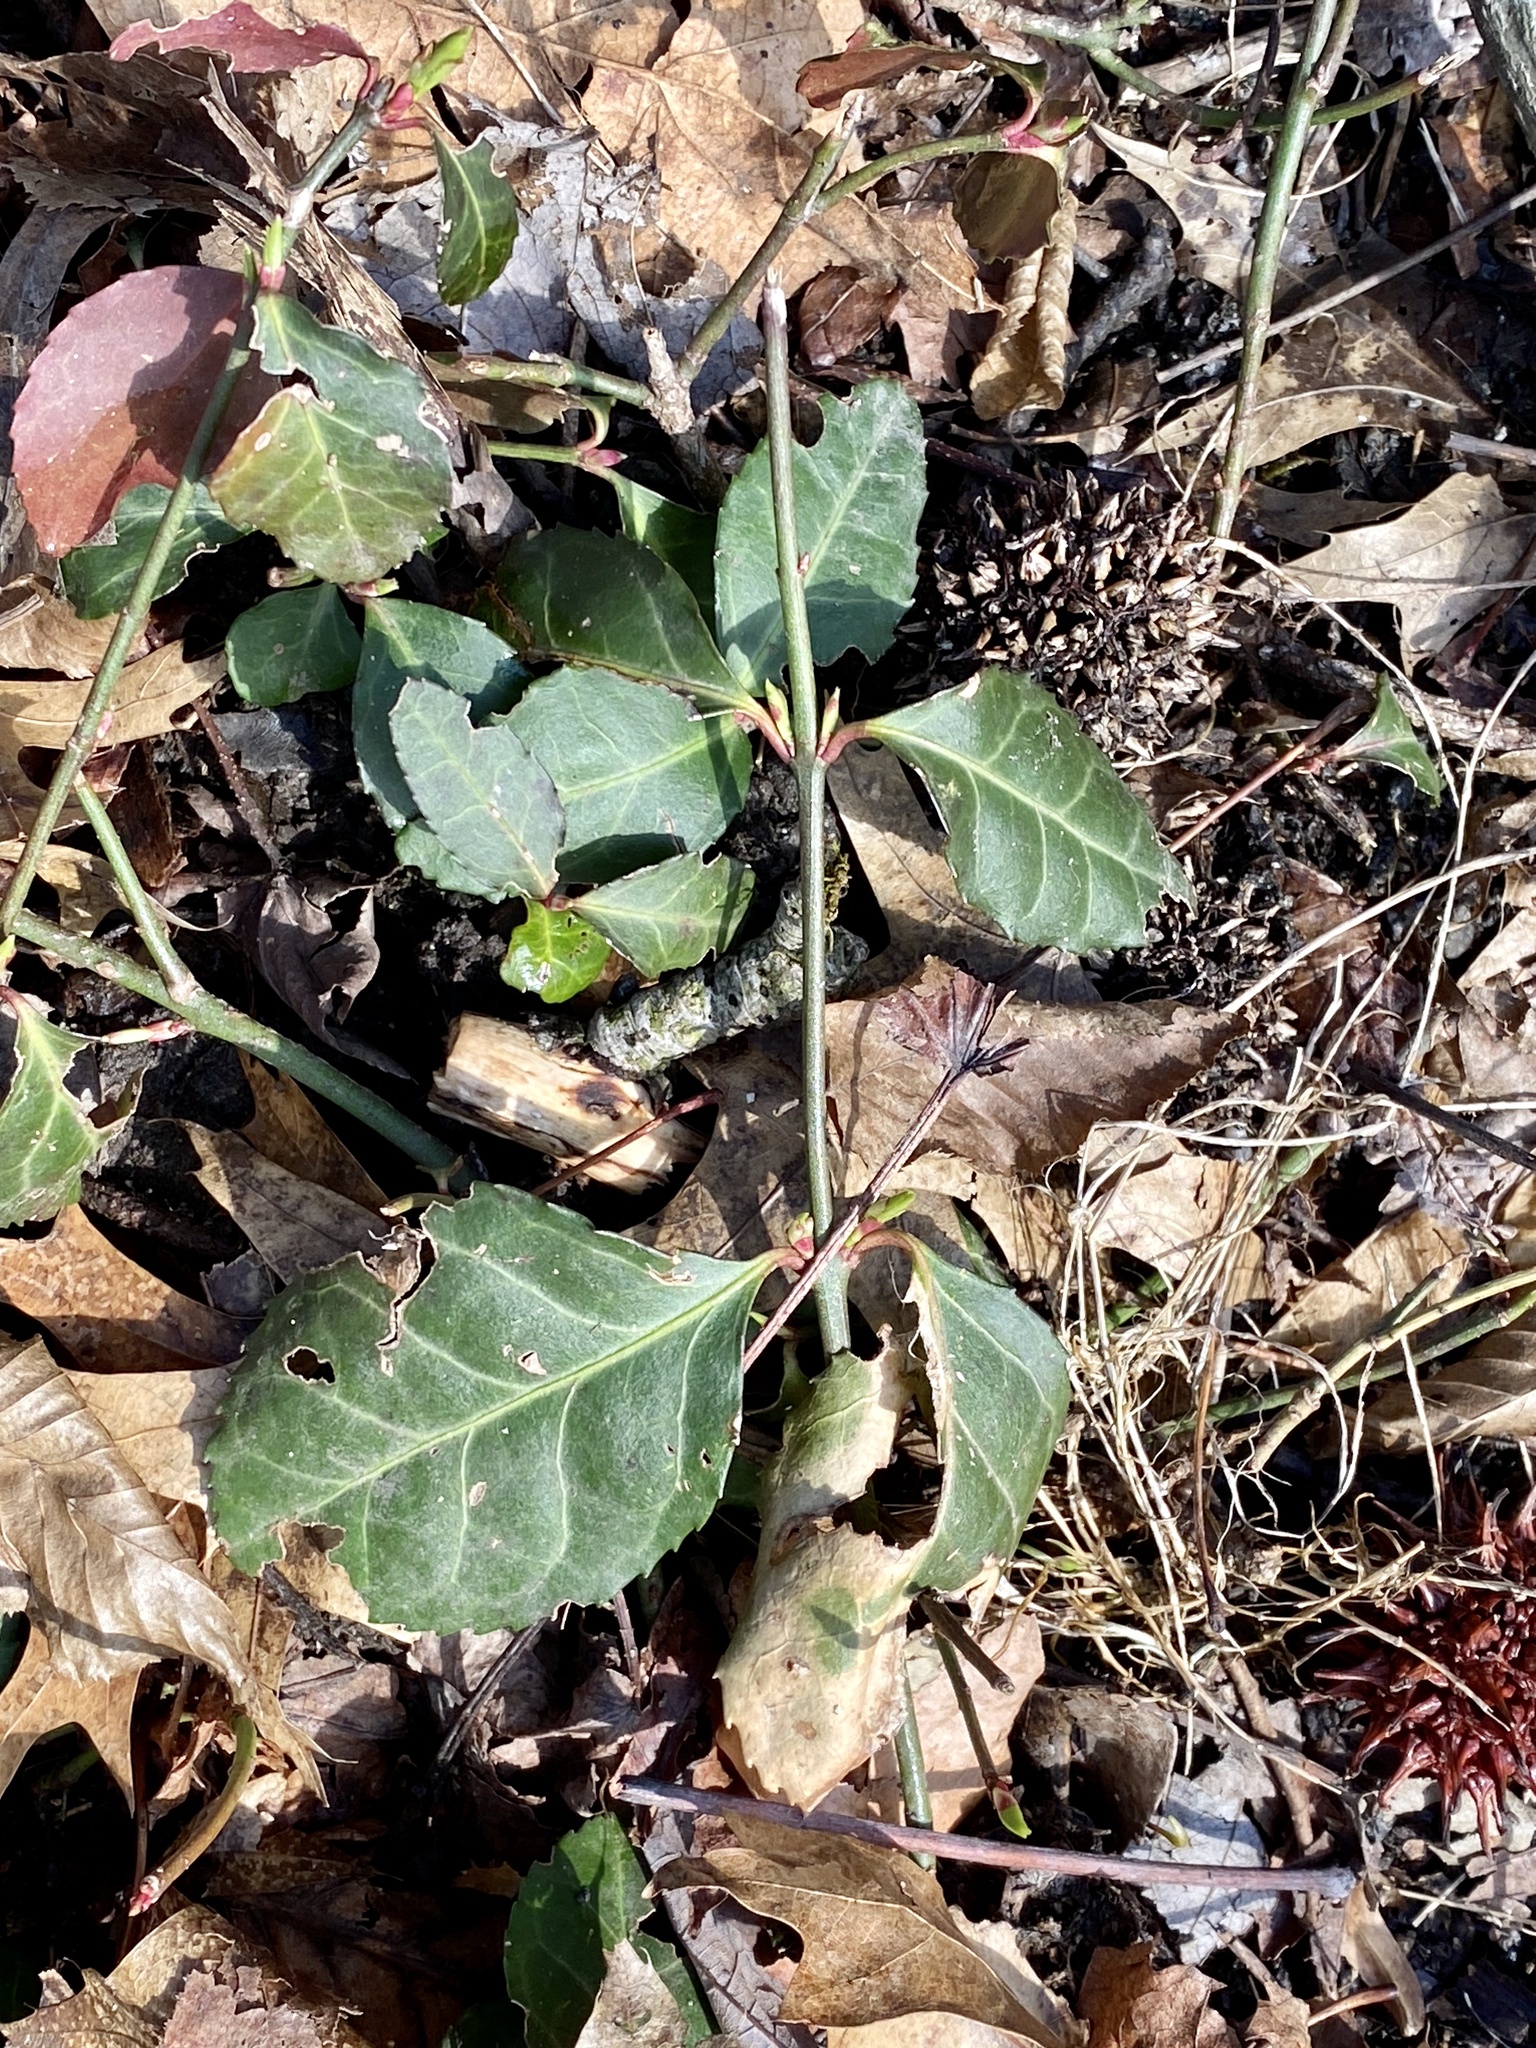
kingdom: Plantae
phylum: Tracheophyta
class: Magnoliopsida
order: Celastrales
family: Celastraceae
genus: Euonymus
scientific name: Euonymus fortunei
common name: Climbing euonymus
